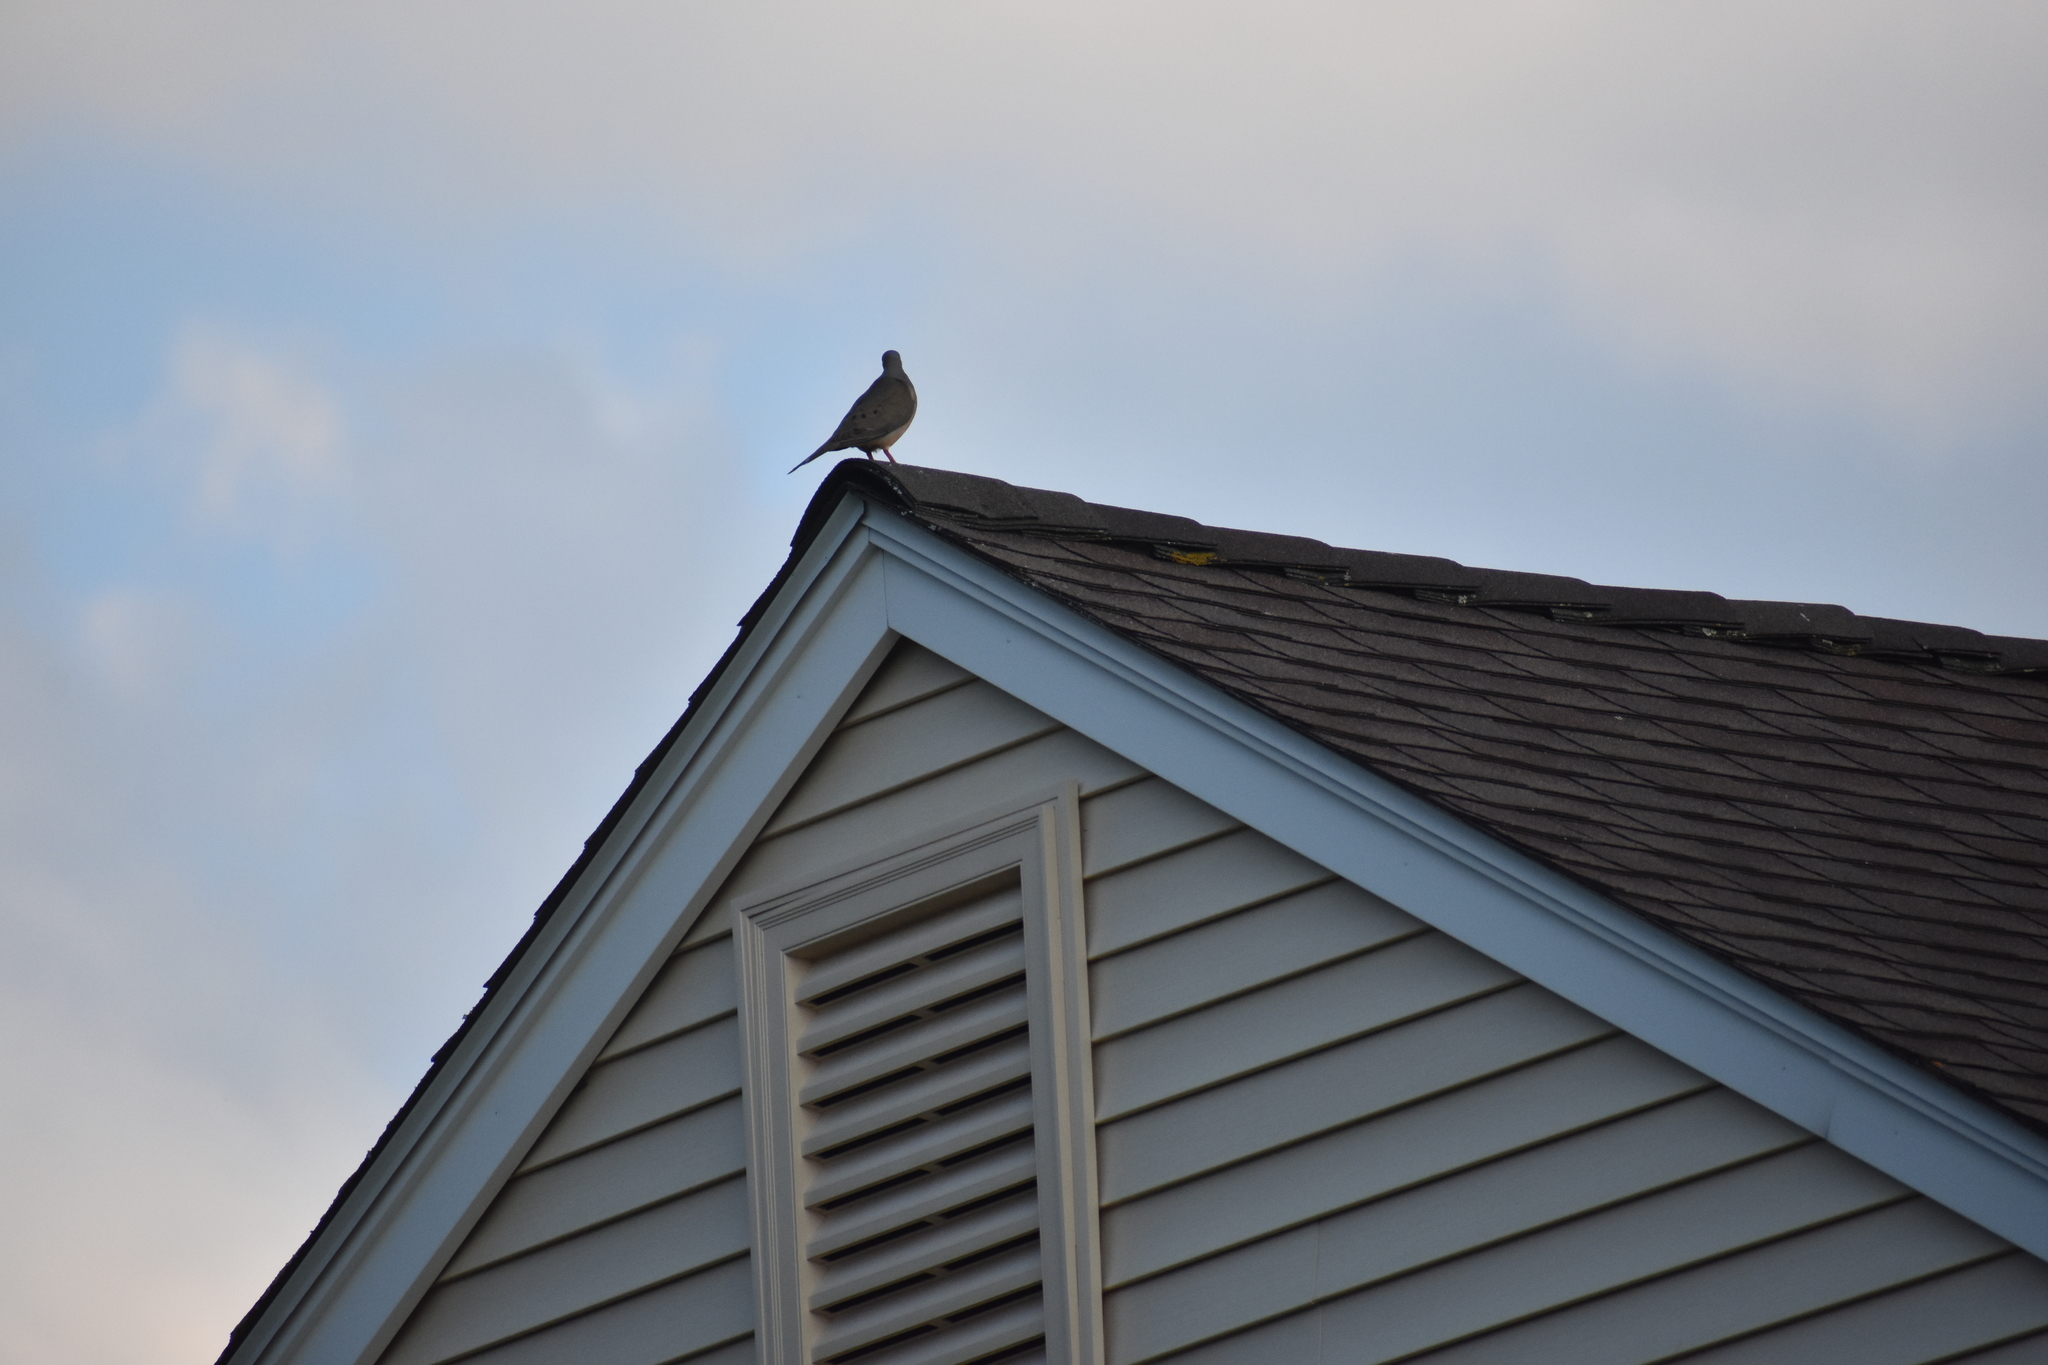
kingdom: Animalia
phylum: Chordata
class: Aves
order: Columbiformes
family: Columbidae
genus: Zenaida
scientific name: Zenaida macroura
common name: Mourning dove
